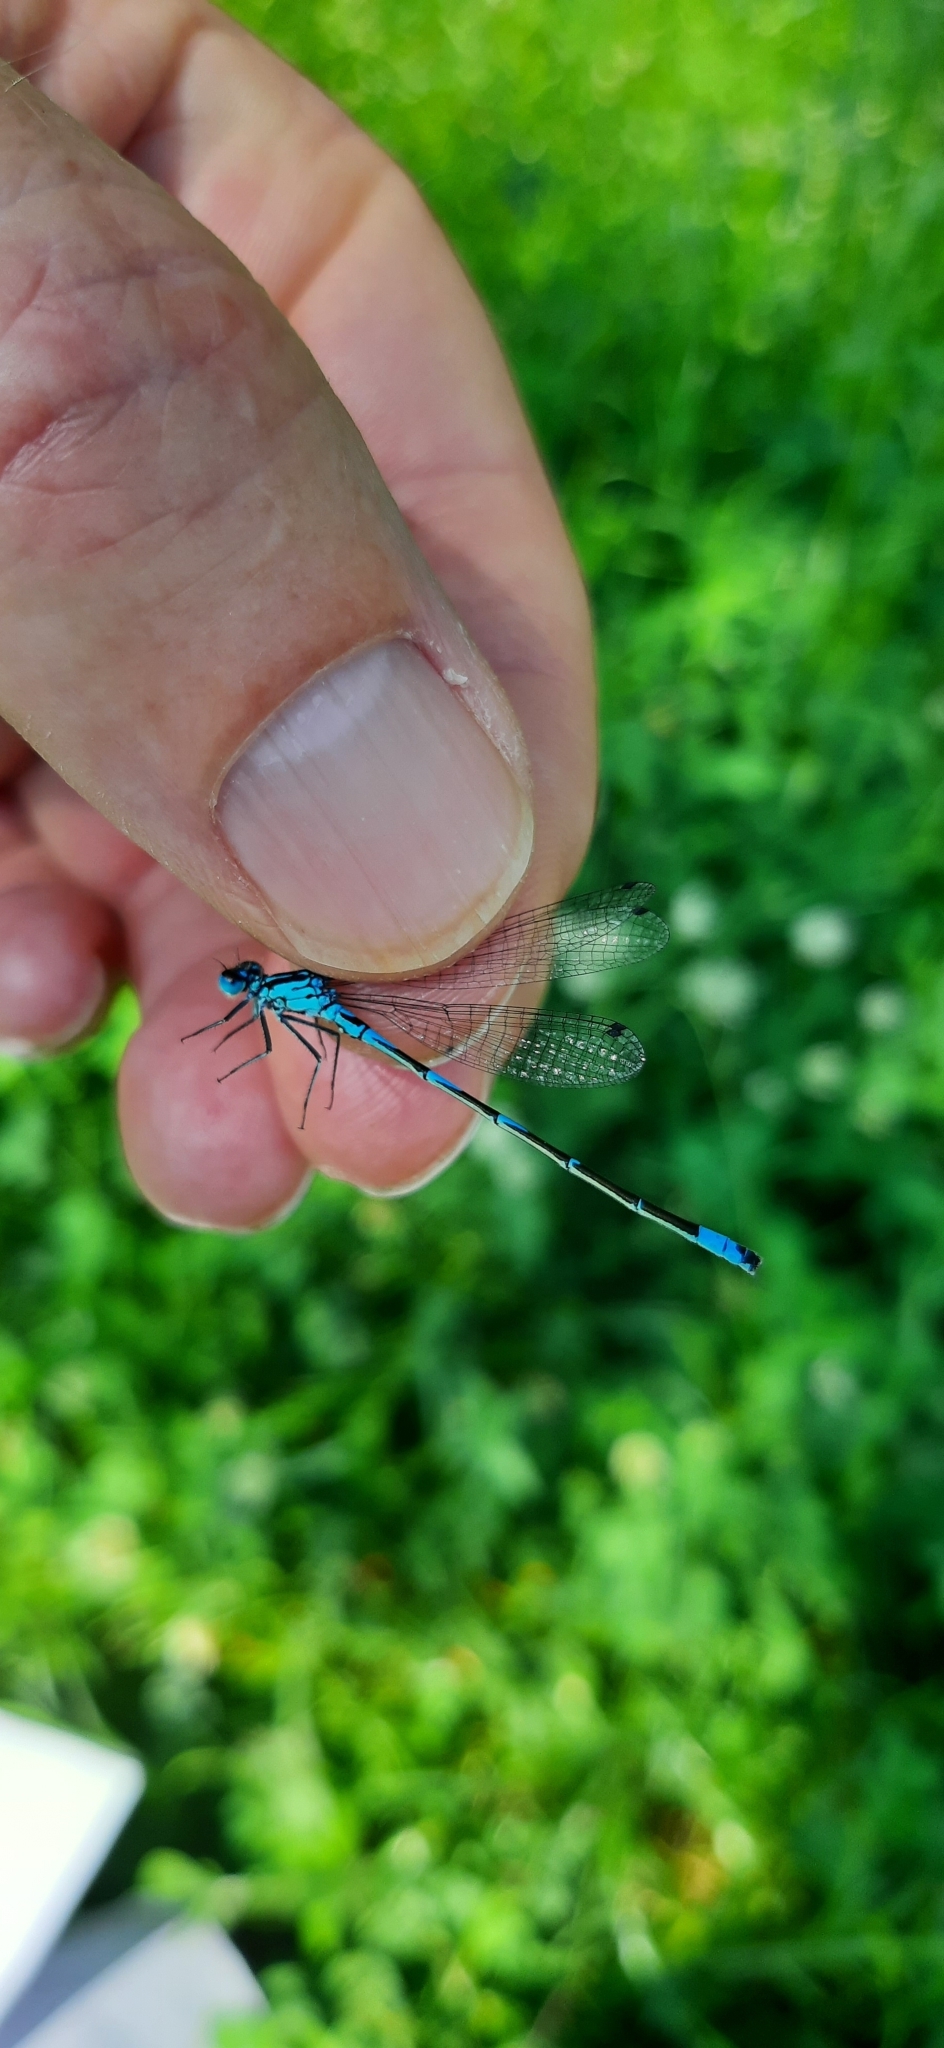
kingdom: Animalia
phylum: Arthropoda
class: Insecta
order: Odonata
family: Coenagrionidae
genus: Coenagrion
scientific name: Coenagrion pulchellum
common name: Variable bluet
